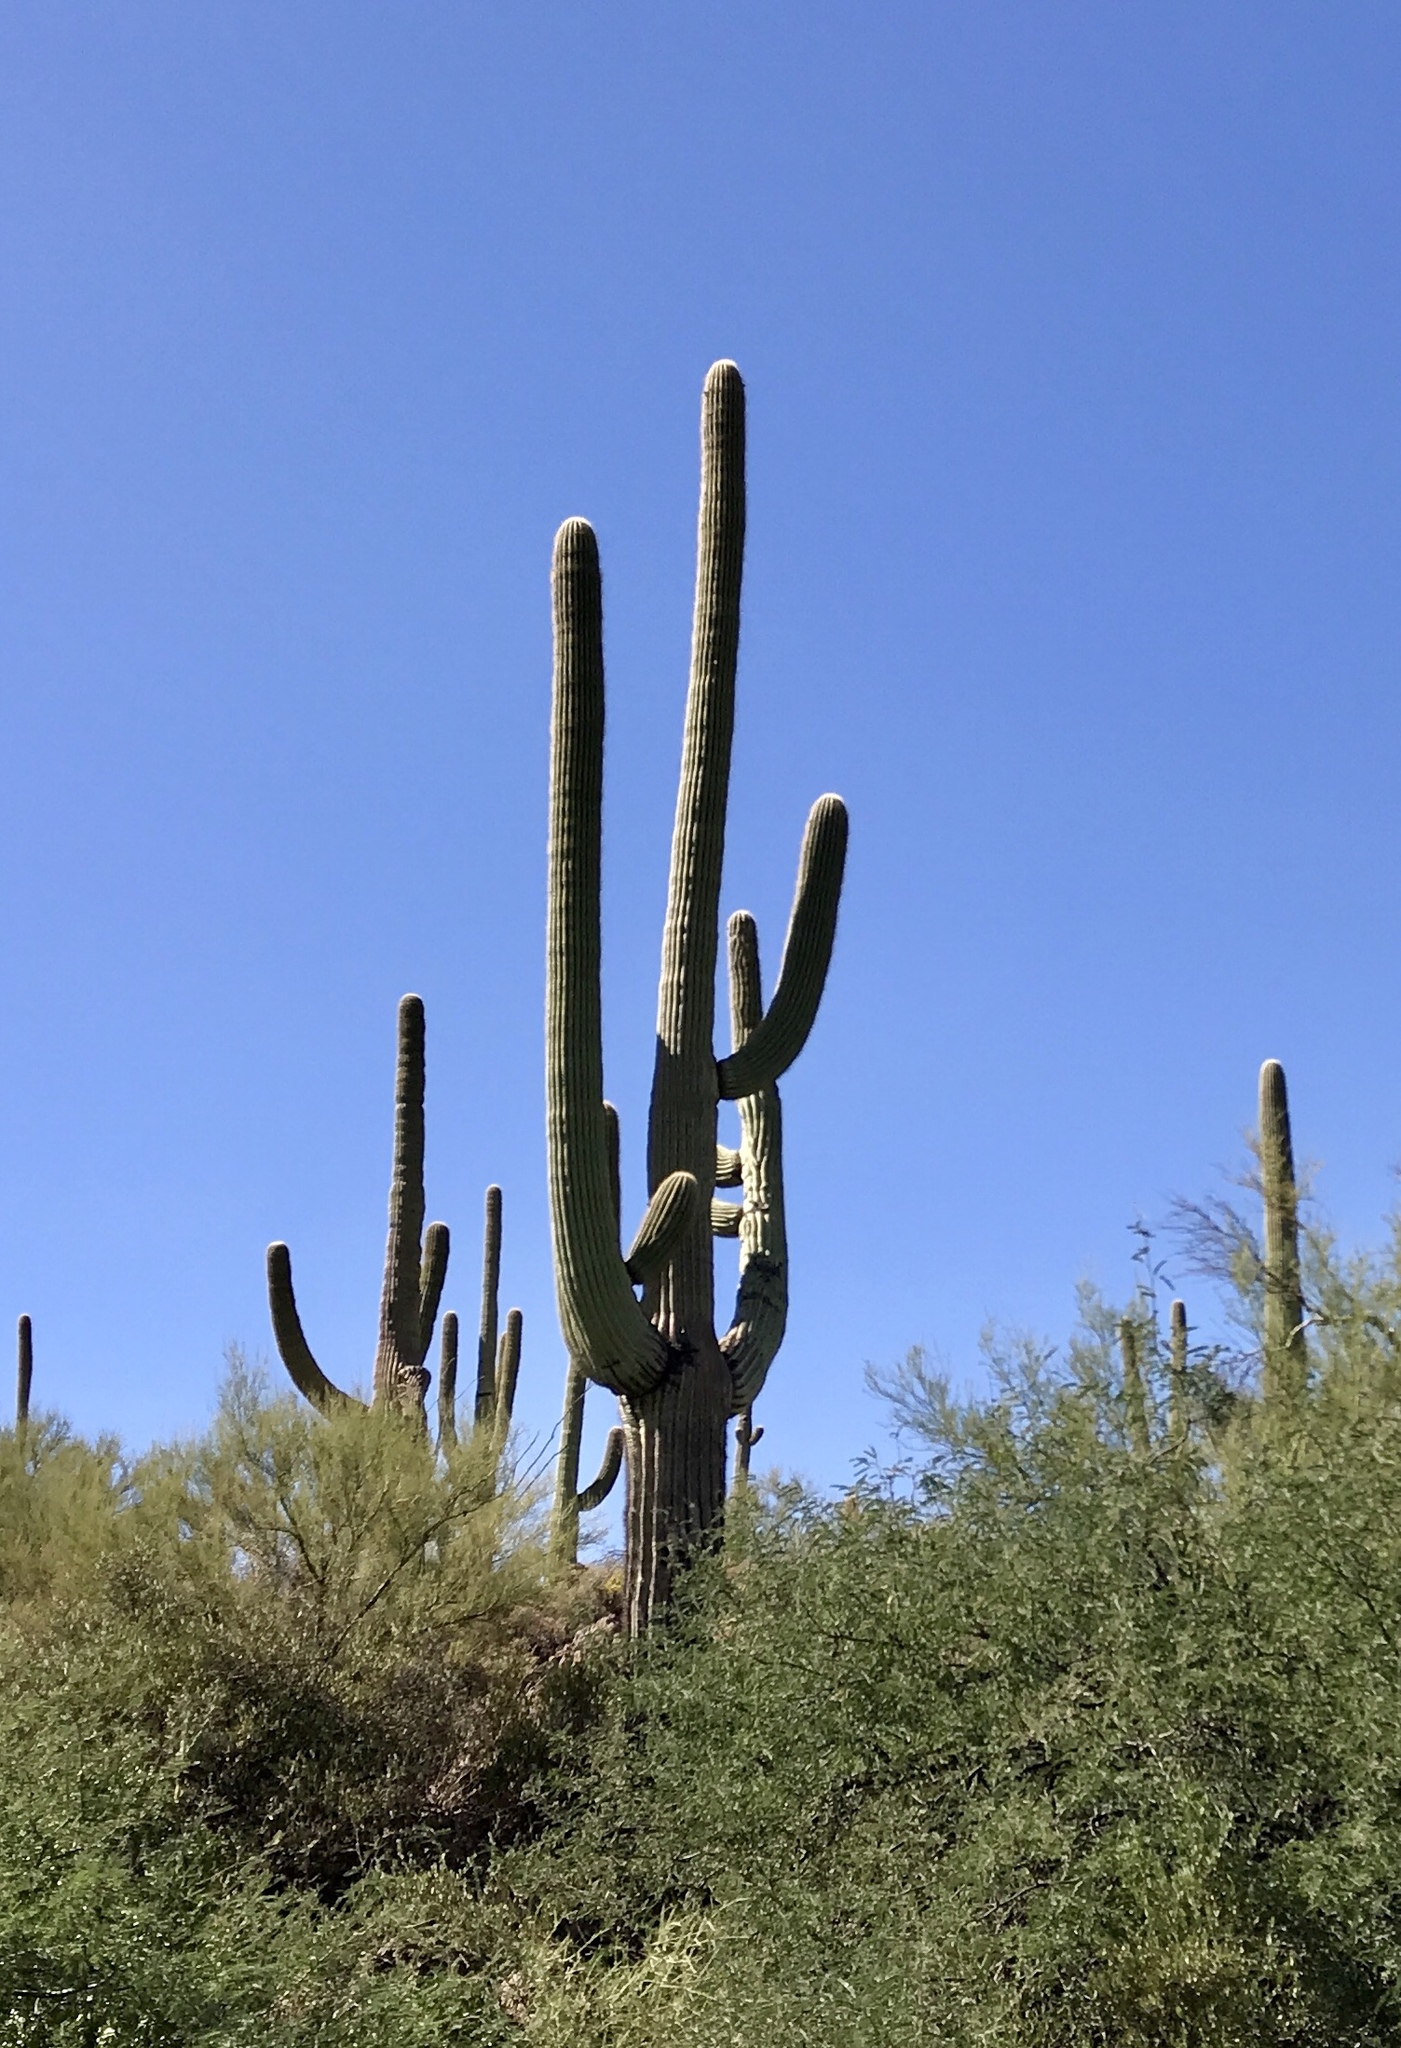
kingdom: Plantae
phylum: Tracheophyta
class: Magnoliopsida
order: Caryophyllales
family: Cactaceae
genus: Carnegiea
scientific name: Carnegiea gigantea
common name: Saguaro
